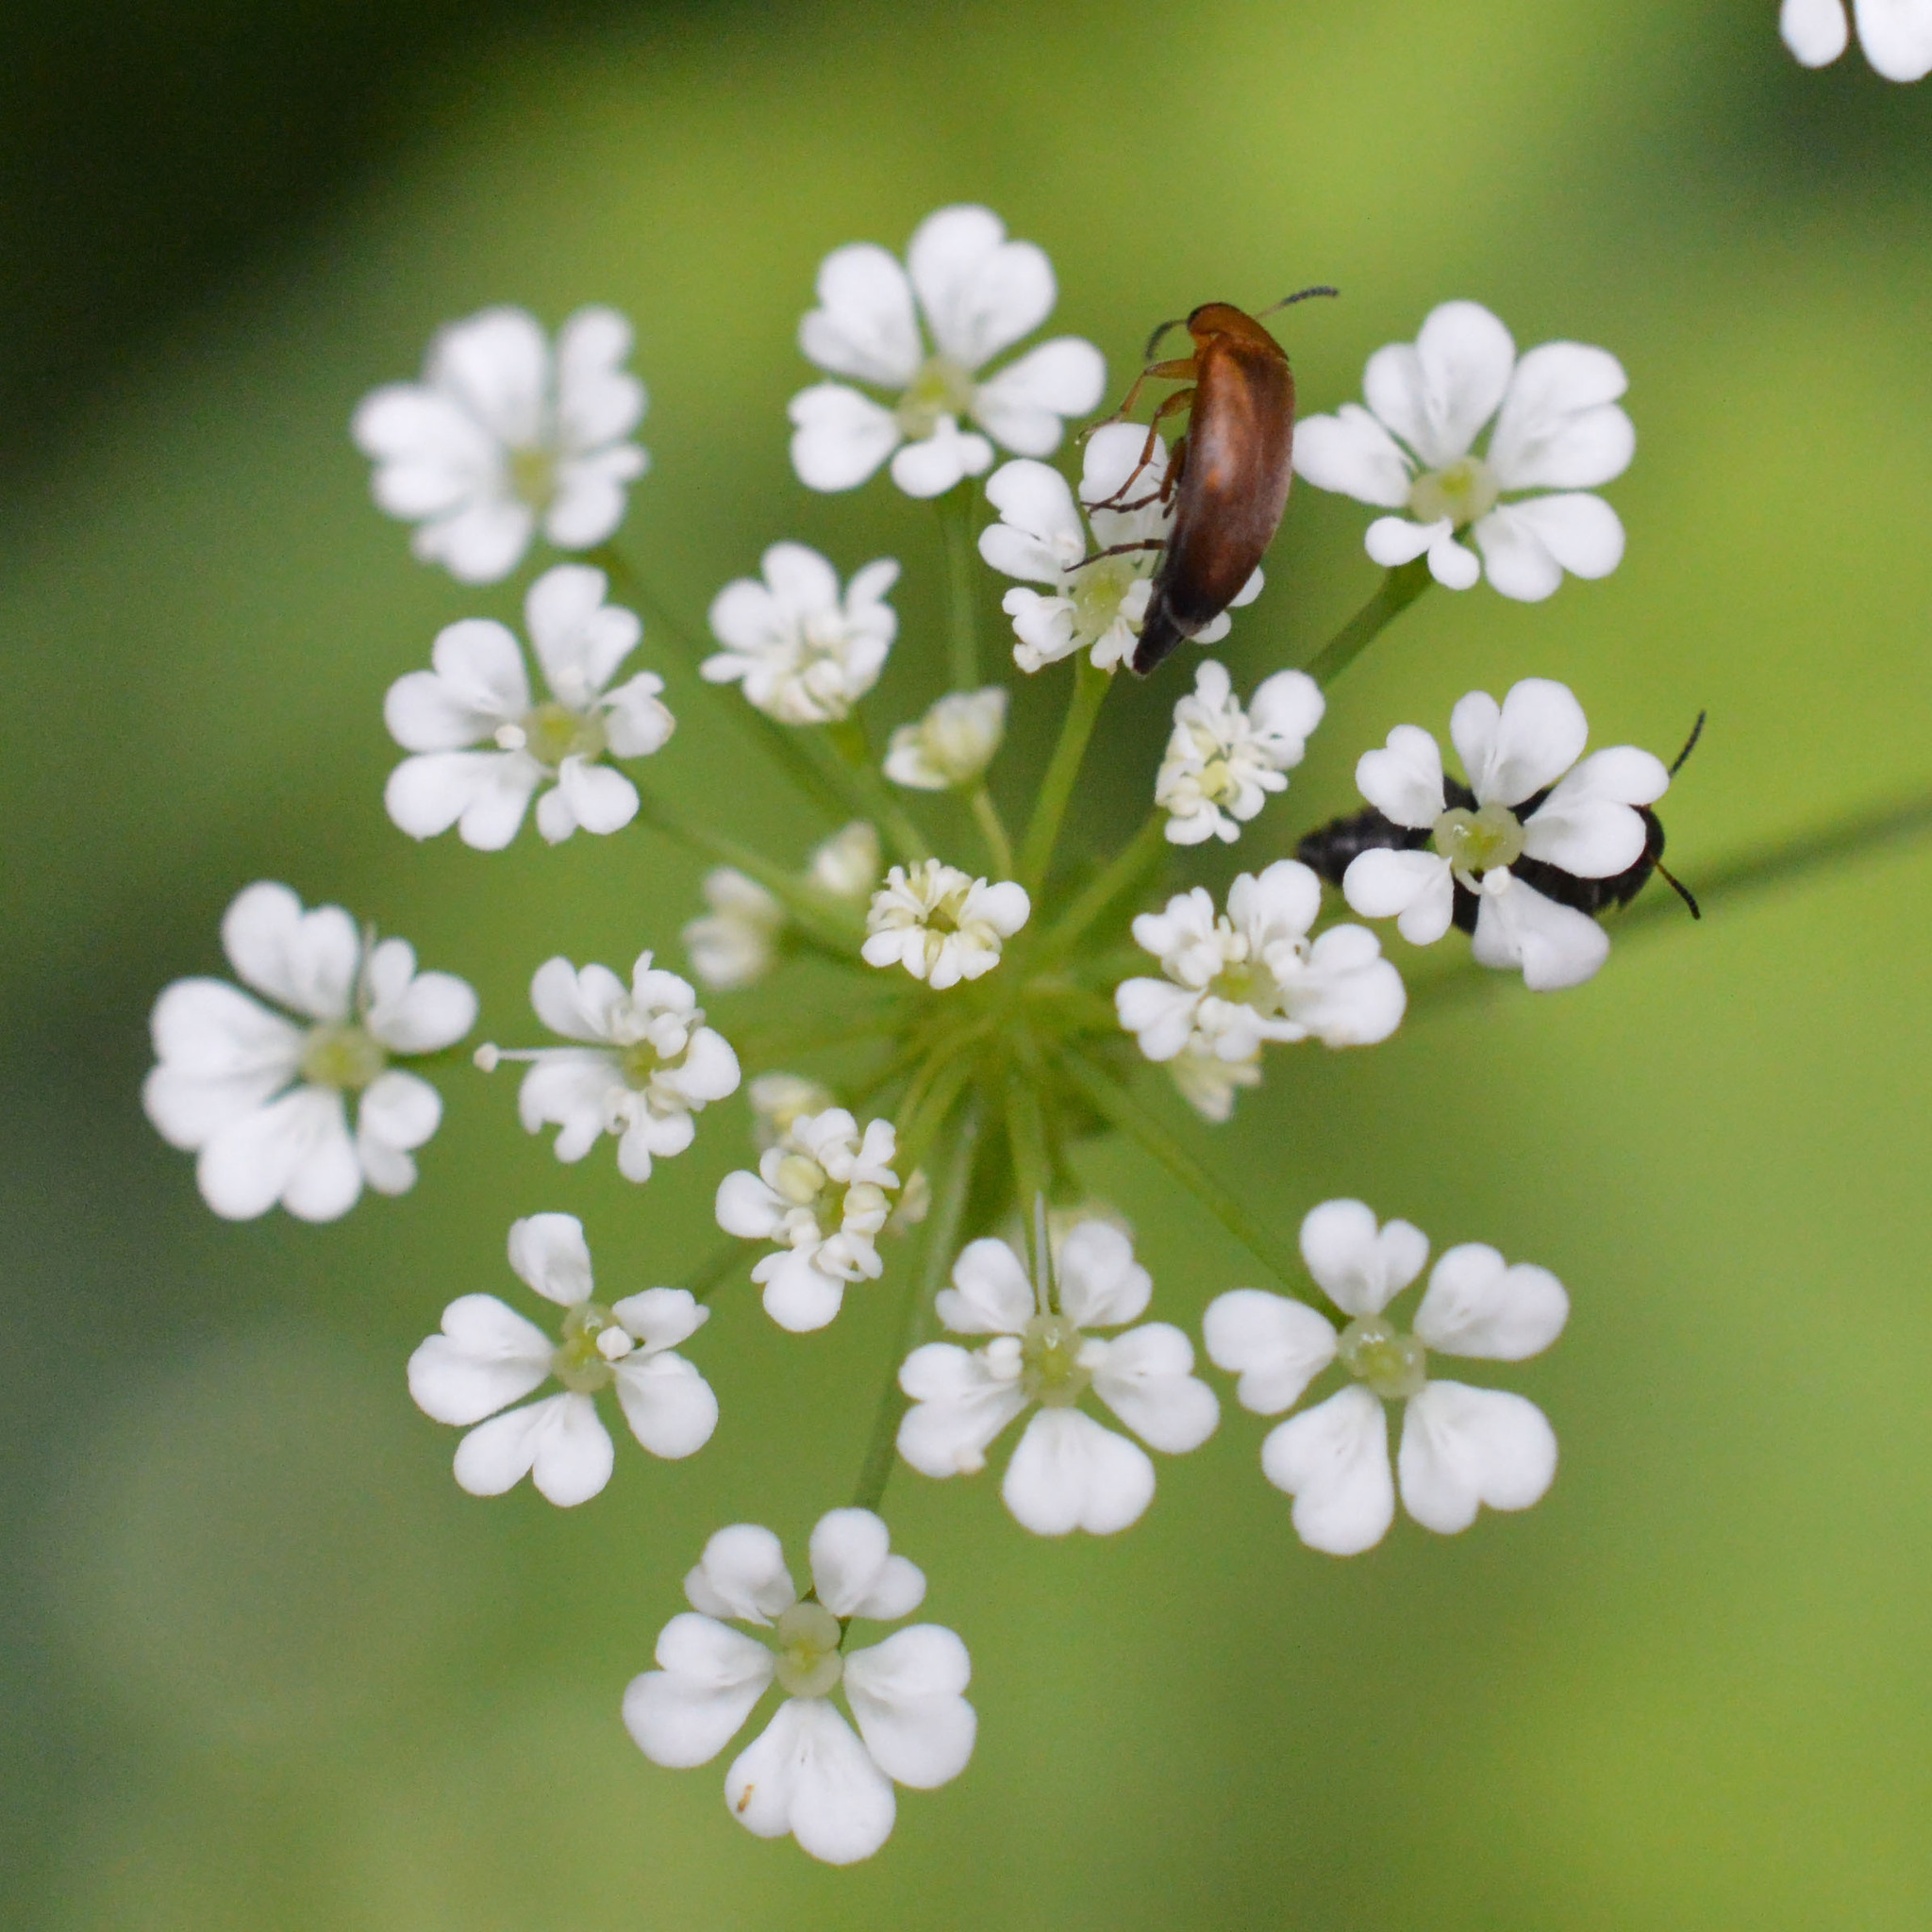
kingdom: Animalia
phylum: Arthropoda
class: Insecta
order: Coleoptera
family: Scraptiidae
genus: Anaspis
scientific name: Anaspis flava
